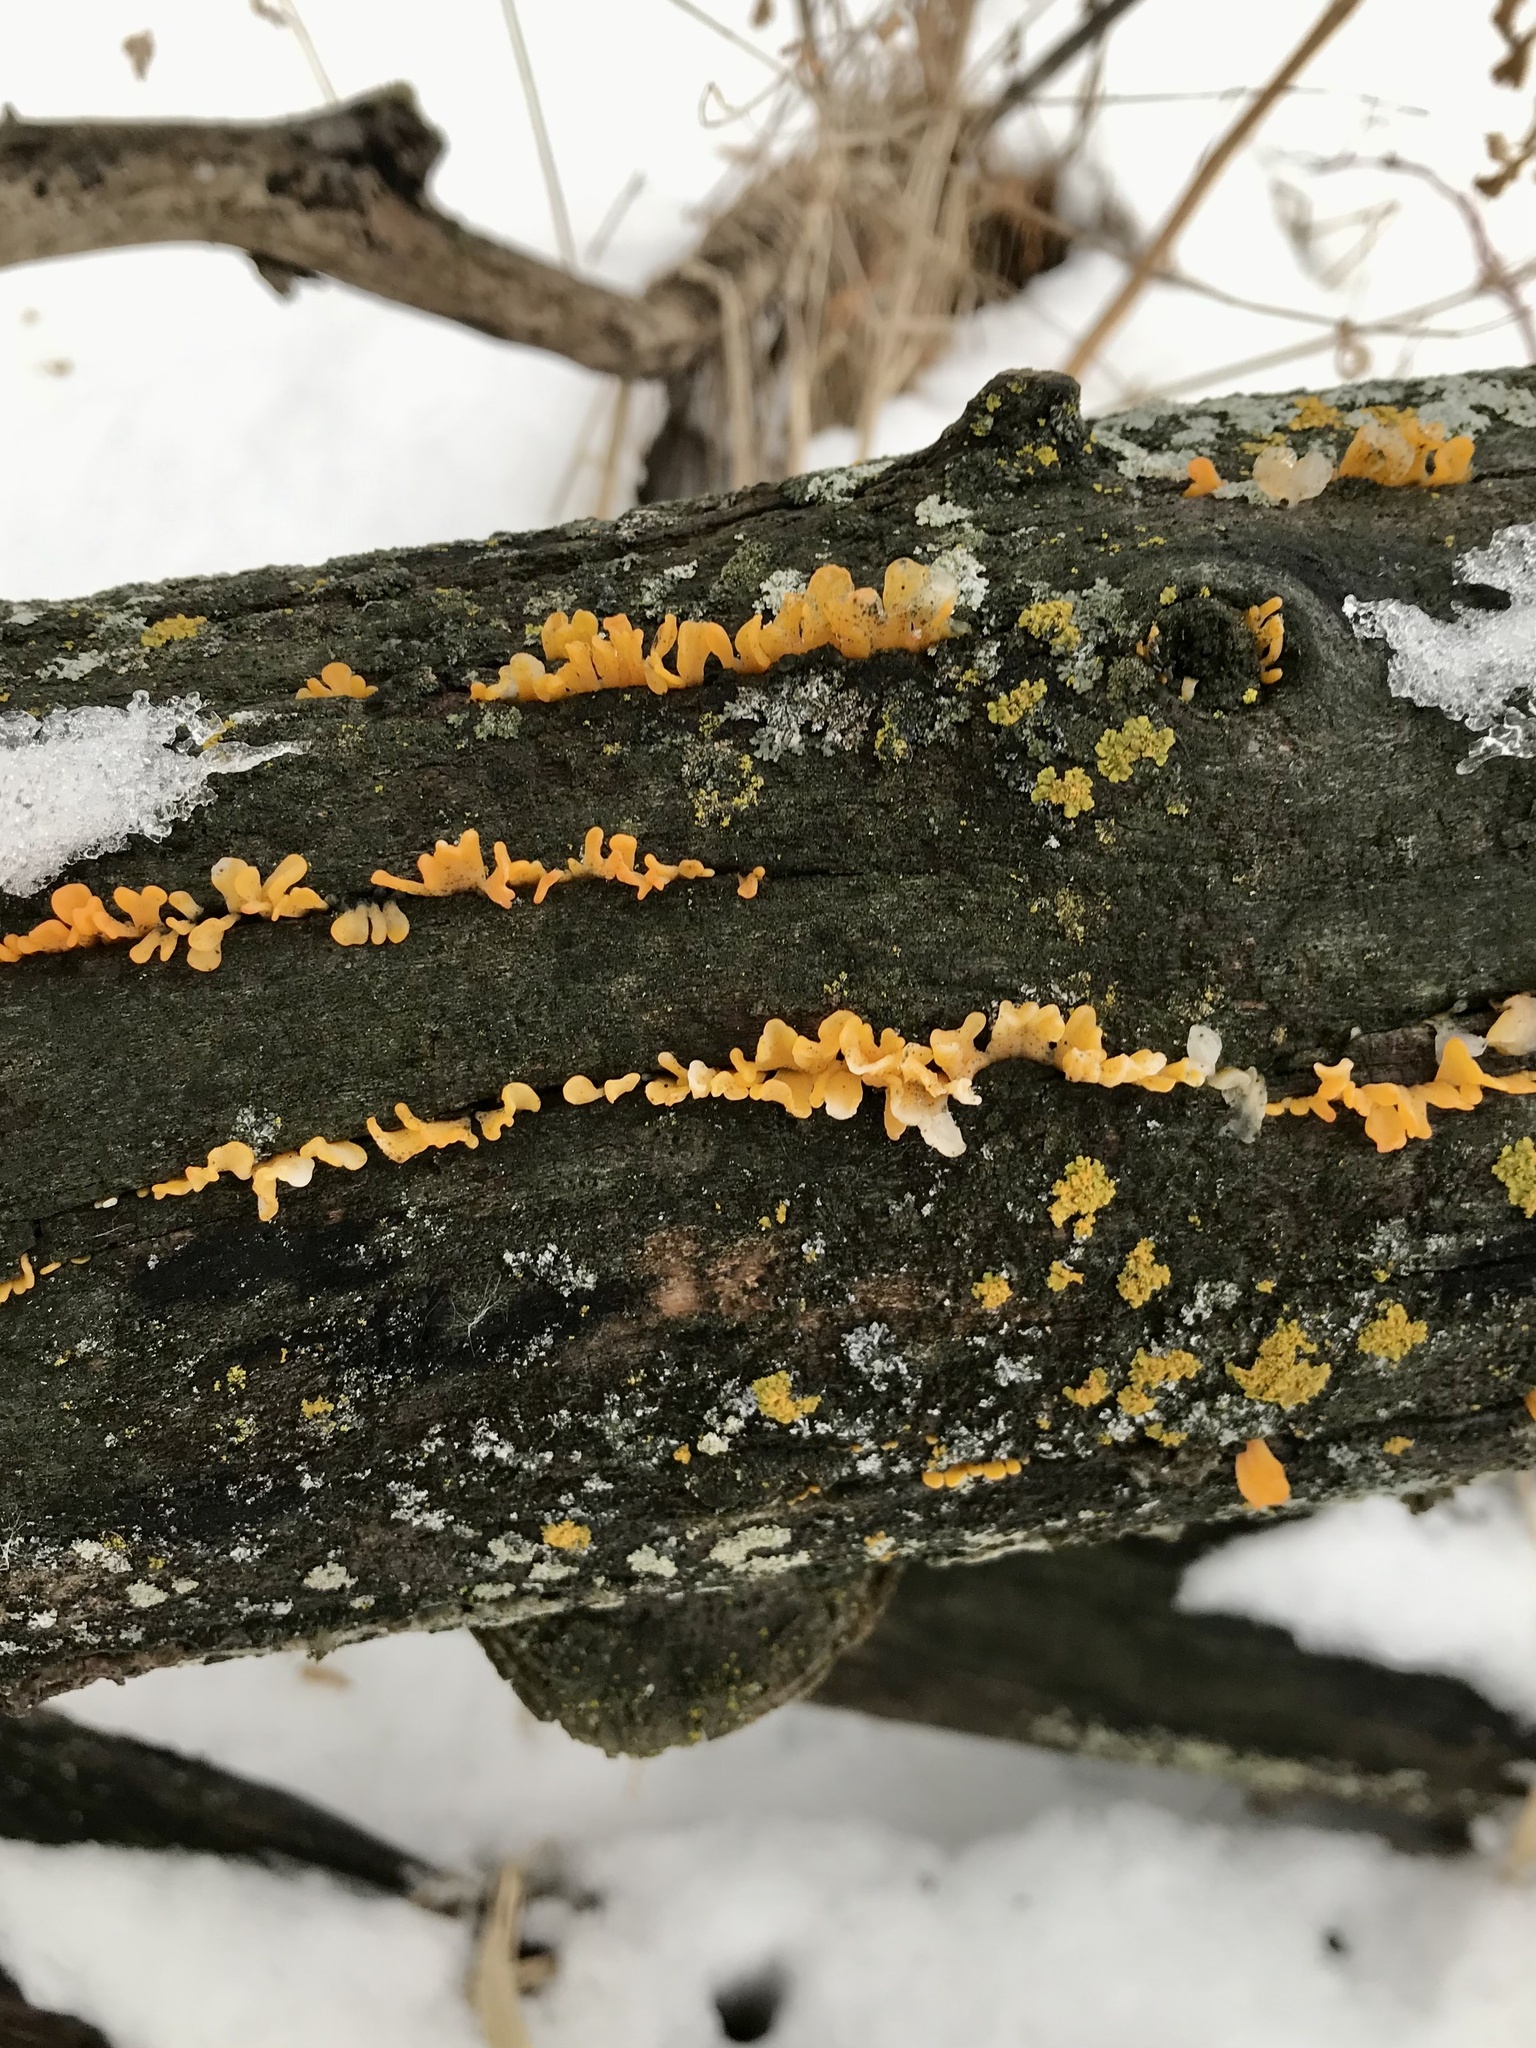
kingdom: Fungi
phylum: Basidiomycota
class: Dacrymycetes
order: Dacrymycetales
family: Dacrymycetaceae
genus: Dacrymyces
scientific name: Dacrymyces spathularius
